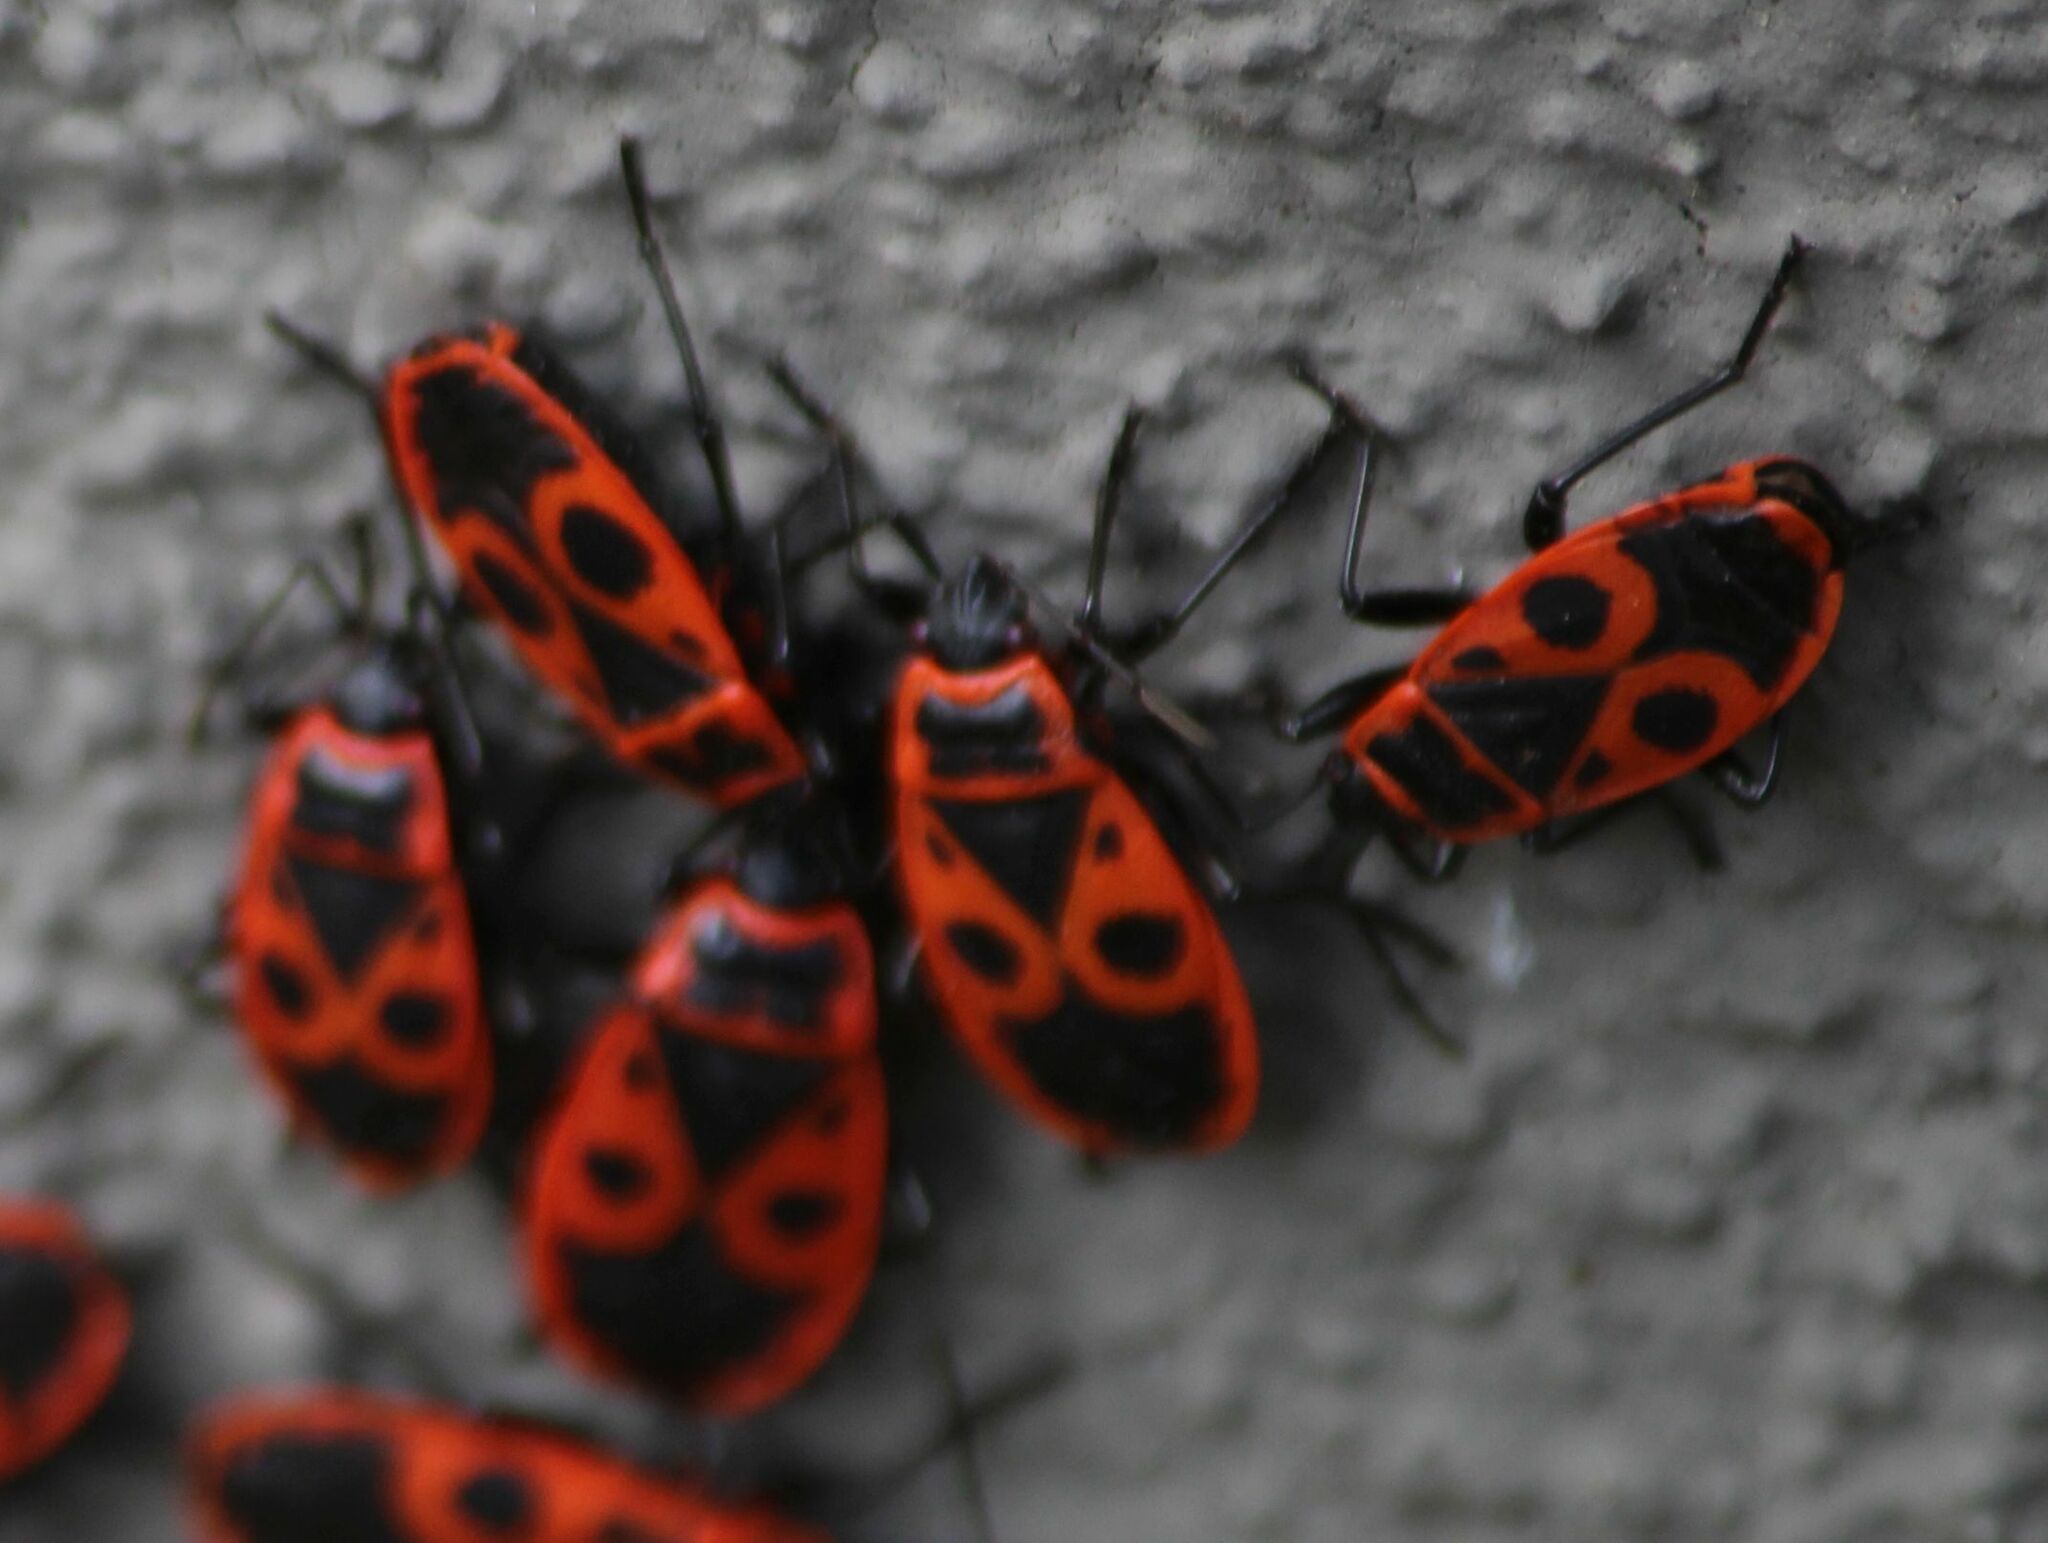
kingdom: Animalia
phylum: Arthropoda
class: Insecta
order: Hemiptera
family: Pyrrhocoridae
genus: Pyrrhocoris
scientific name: Pyrrhocoris apterus
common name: Firebug
